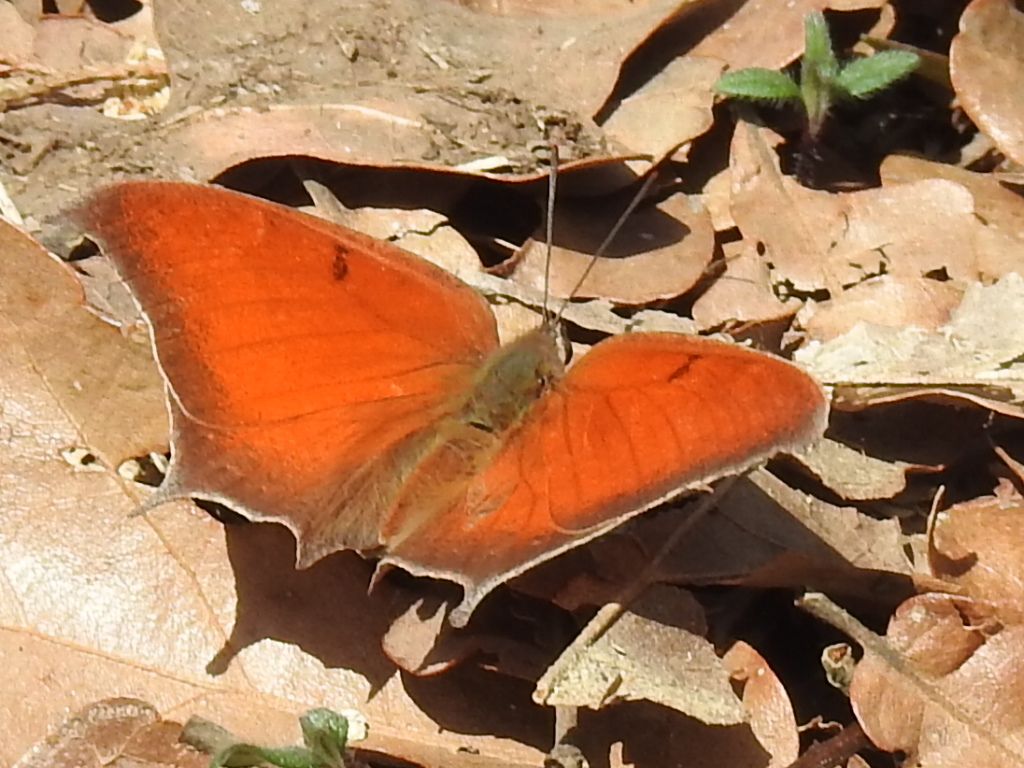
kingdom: Animalia
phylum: Arthropoda
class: Insecta
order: Lepidoptera
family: Nymphalidae
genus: Anaea
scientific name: Anaea andria
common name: Goatweed leafwing
